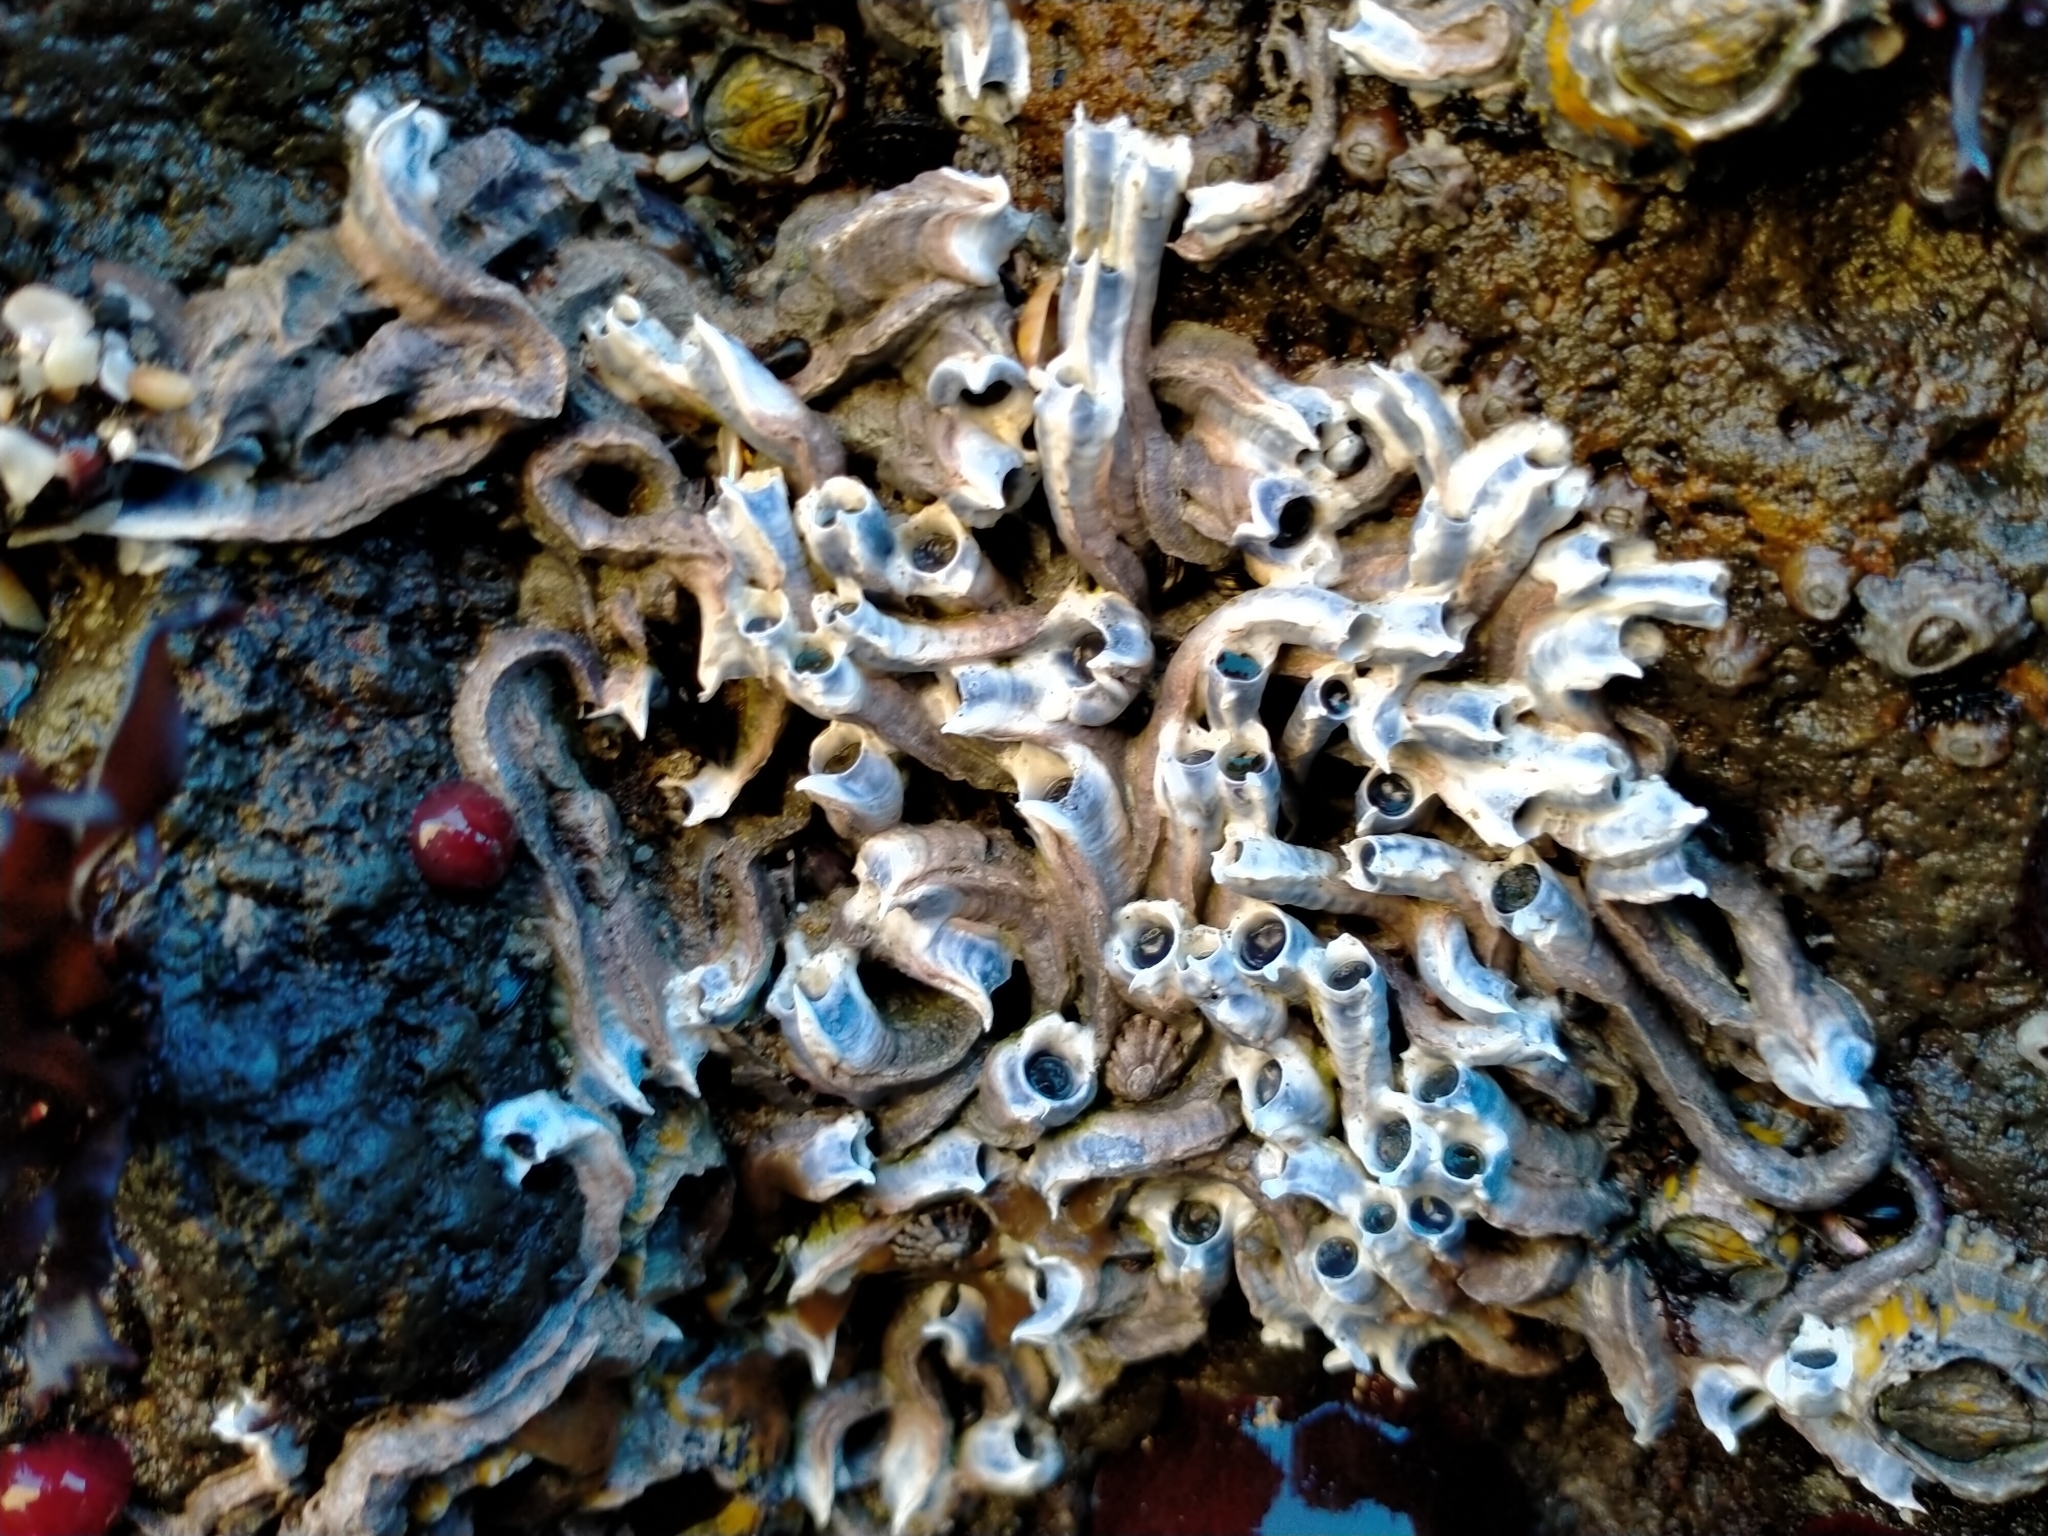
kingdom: Animalia
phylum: Annelida
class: Polychaeta
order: Sabellida
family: Serpulidae
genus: Spirobranchus
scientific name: Spirobranchus cariniferus
